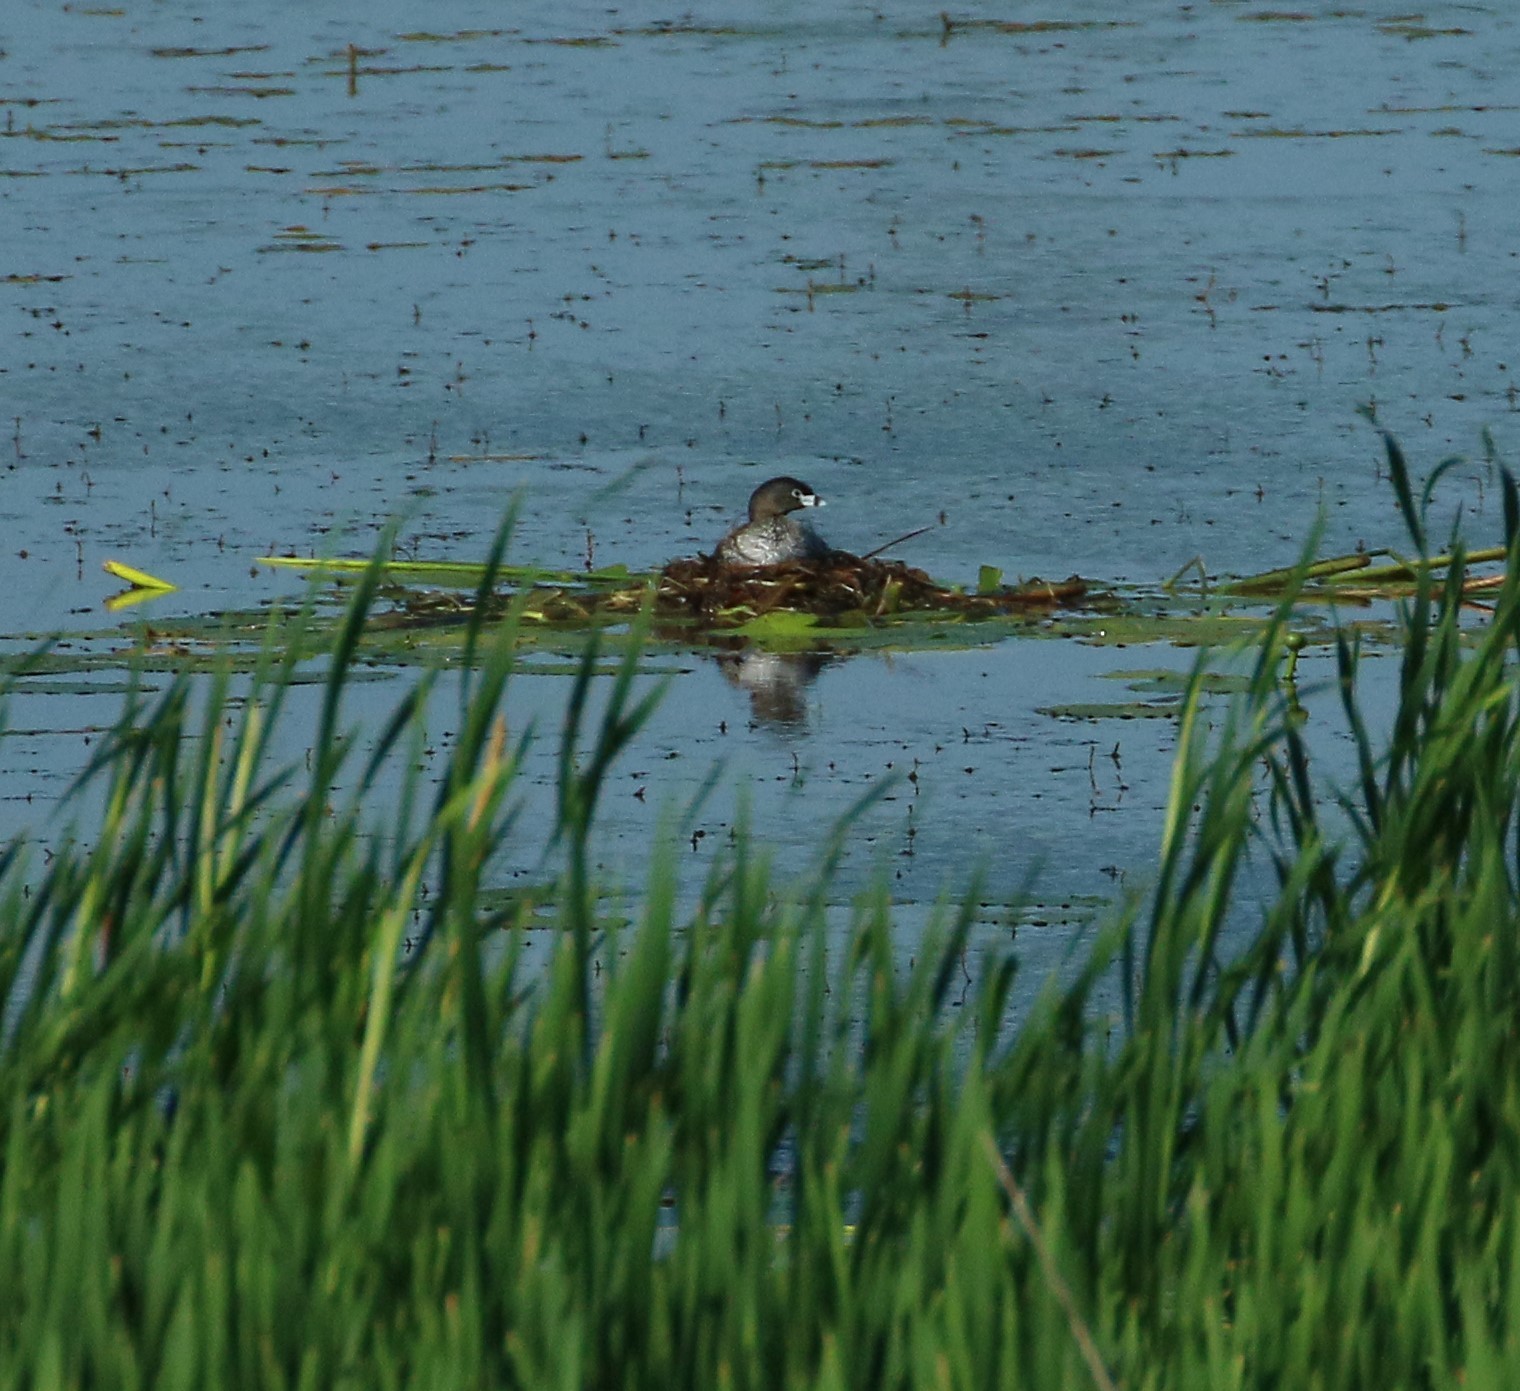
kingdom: Animalia
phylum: Chordata
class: Aves
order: Podicipediformes
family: Podicipedidae
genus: Podilymbus
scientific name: Podilymbus podiceps
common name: Pied-billed grebe
